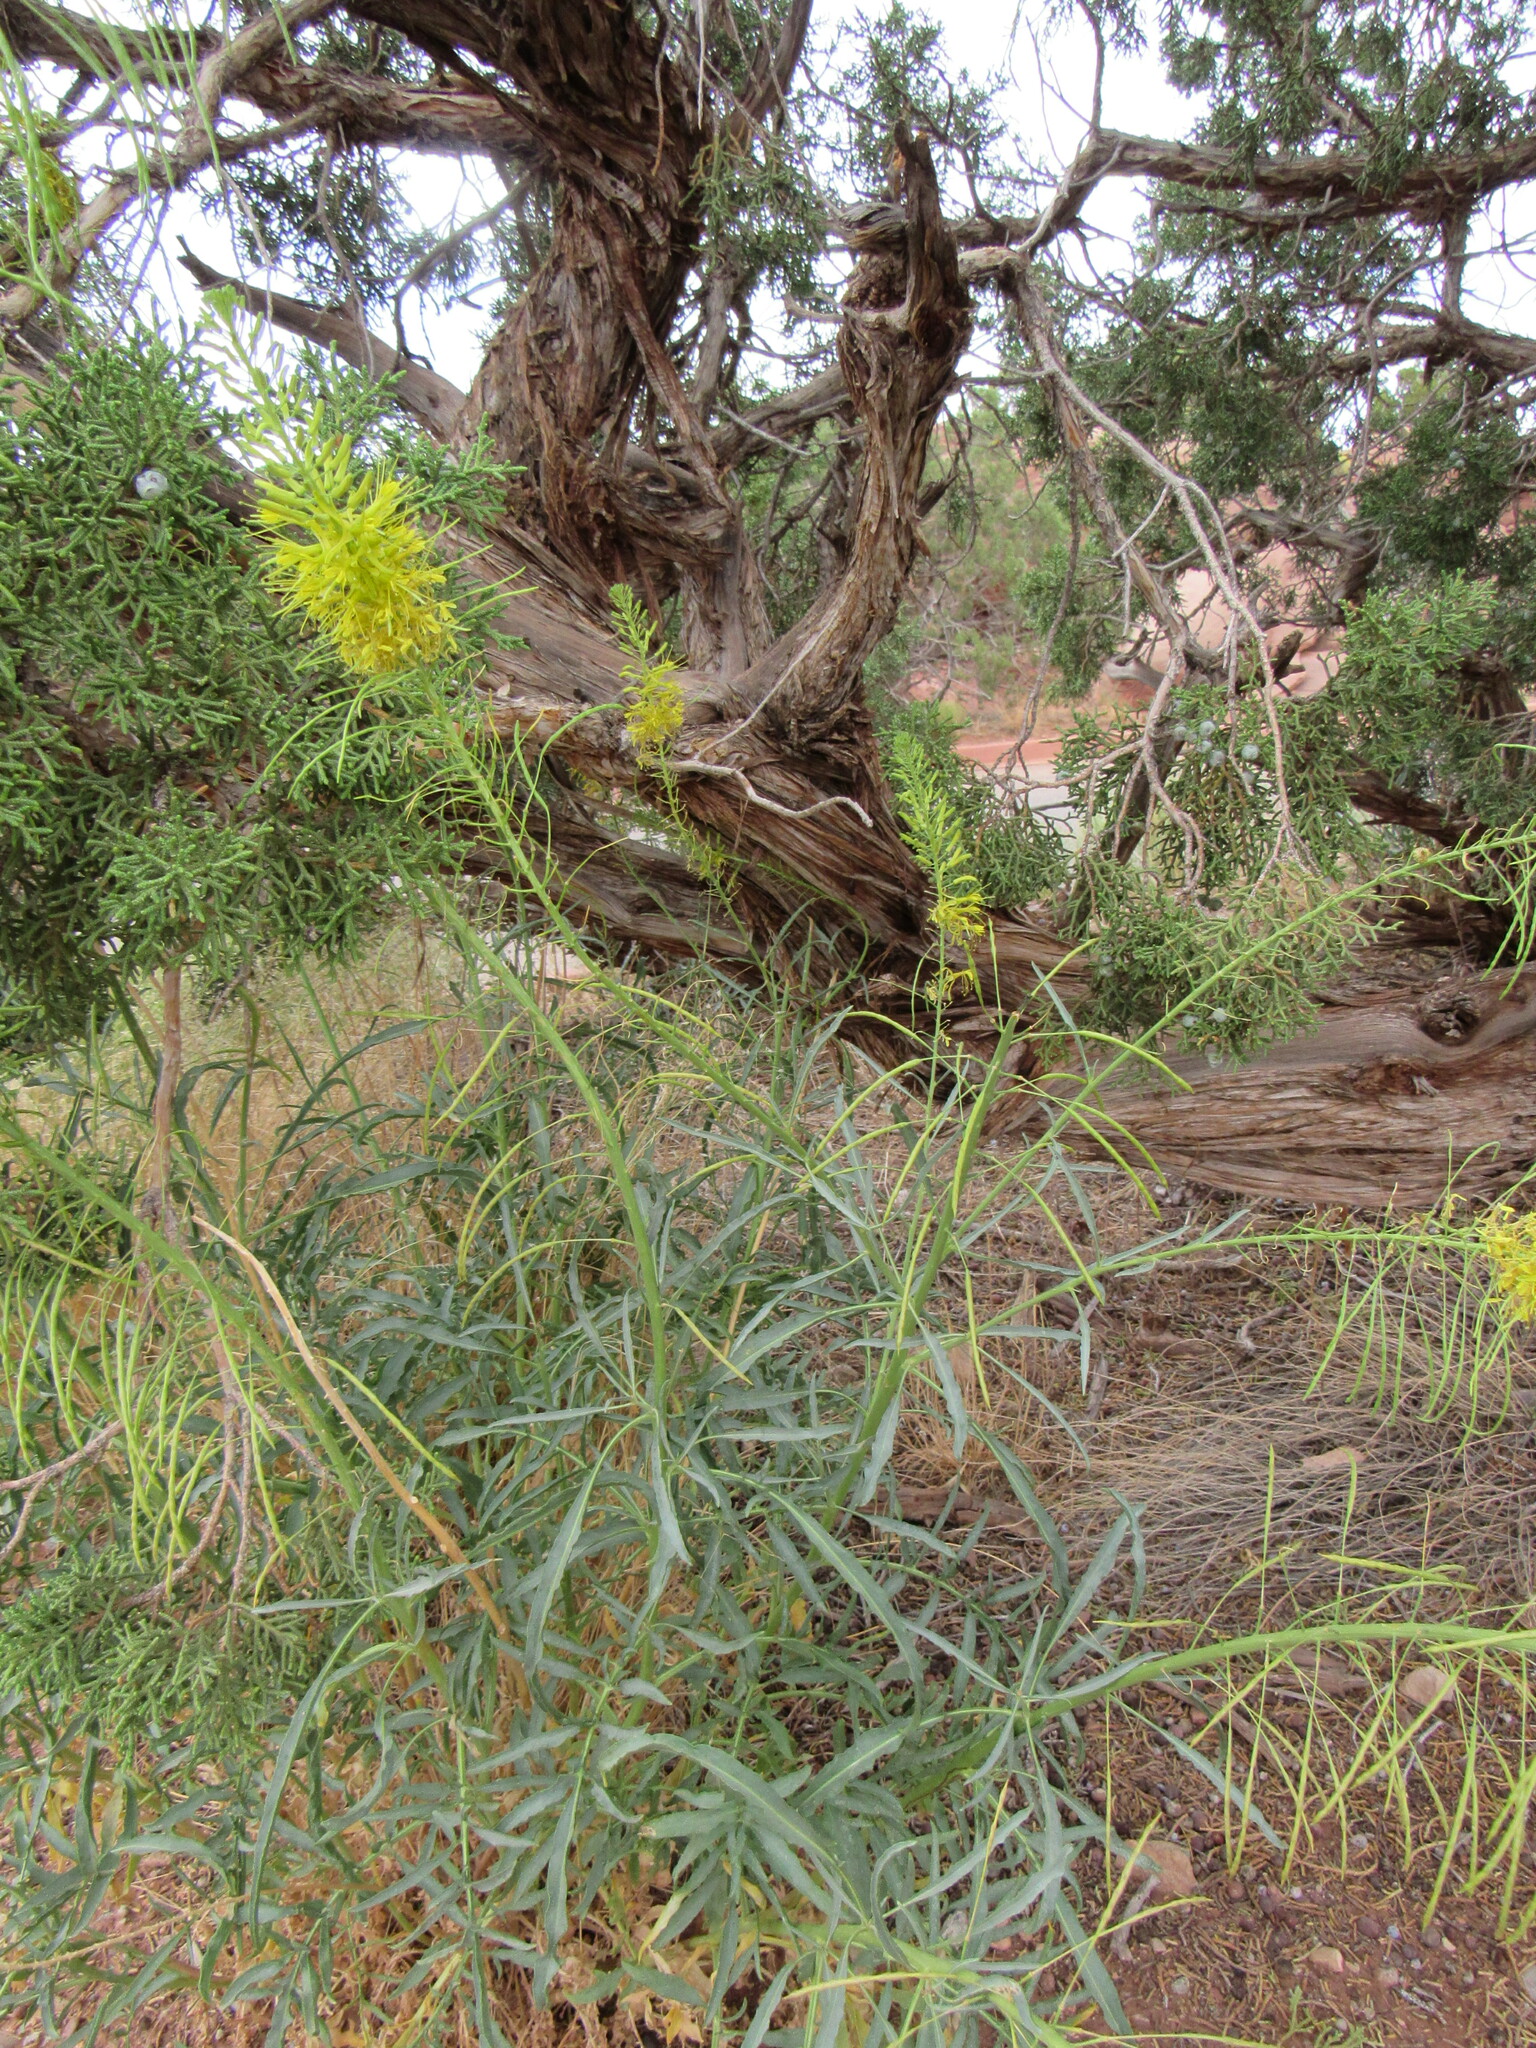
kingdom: Plantae
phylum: Tracheophyta
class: Magnoliopsida
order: Brassicales
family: Brassicaceae
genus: Stanleya
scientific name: Stanleya pinnata
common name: Prince's-plume
